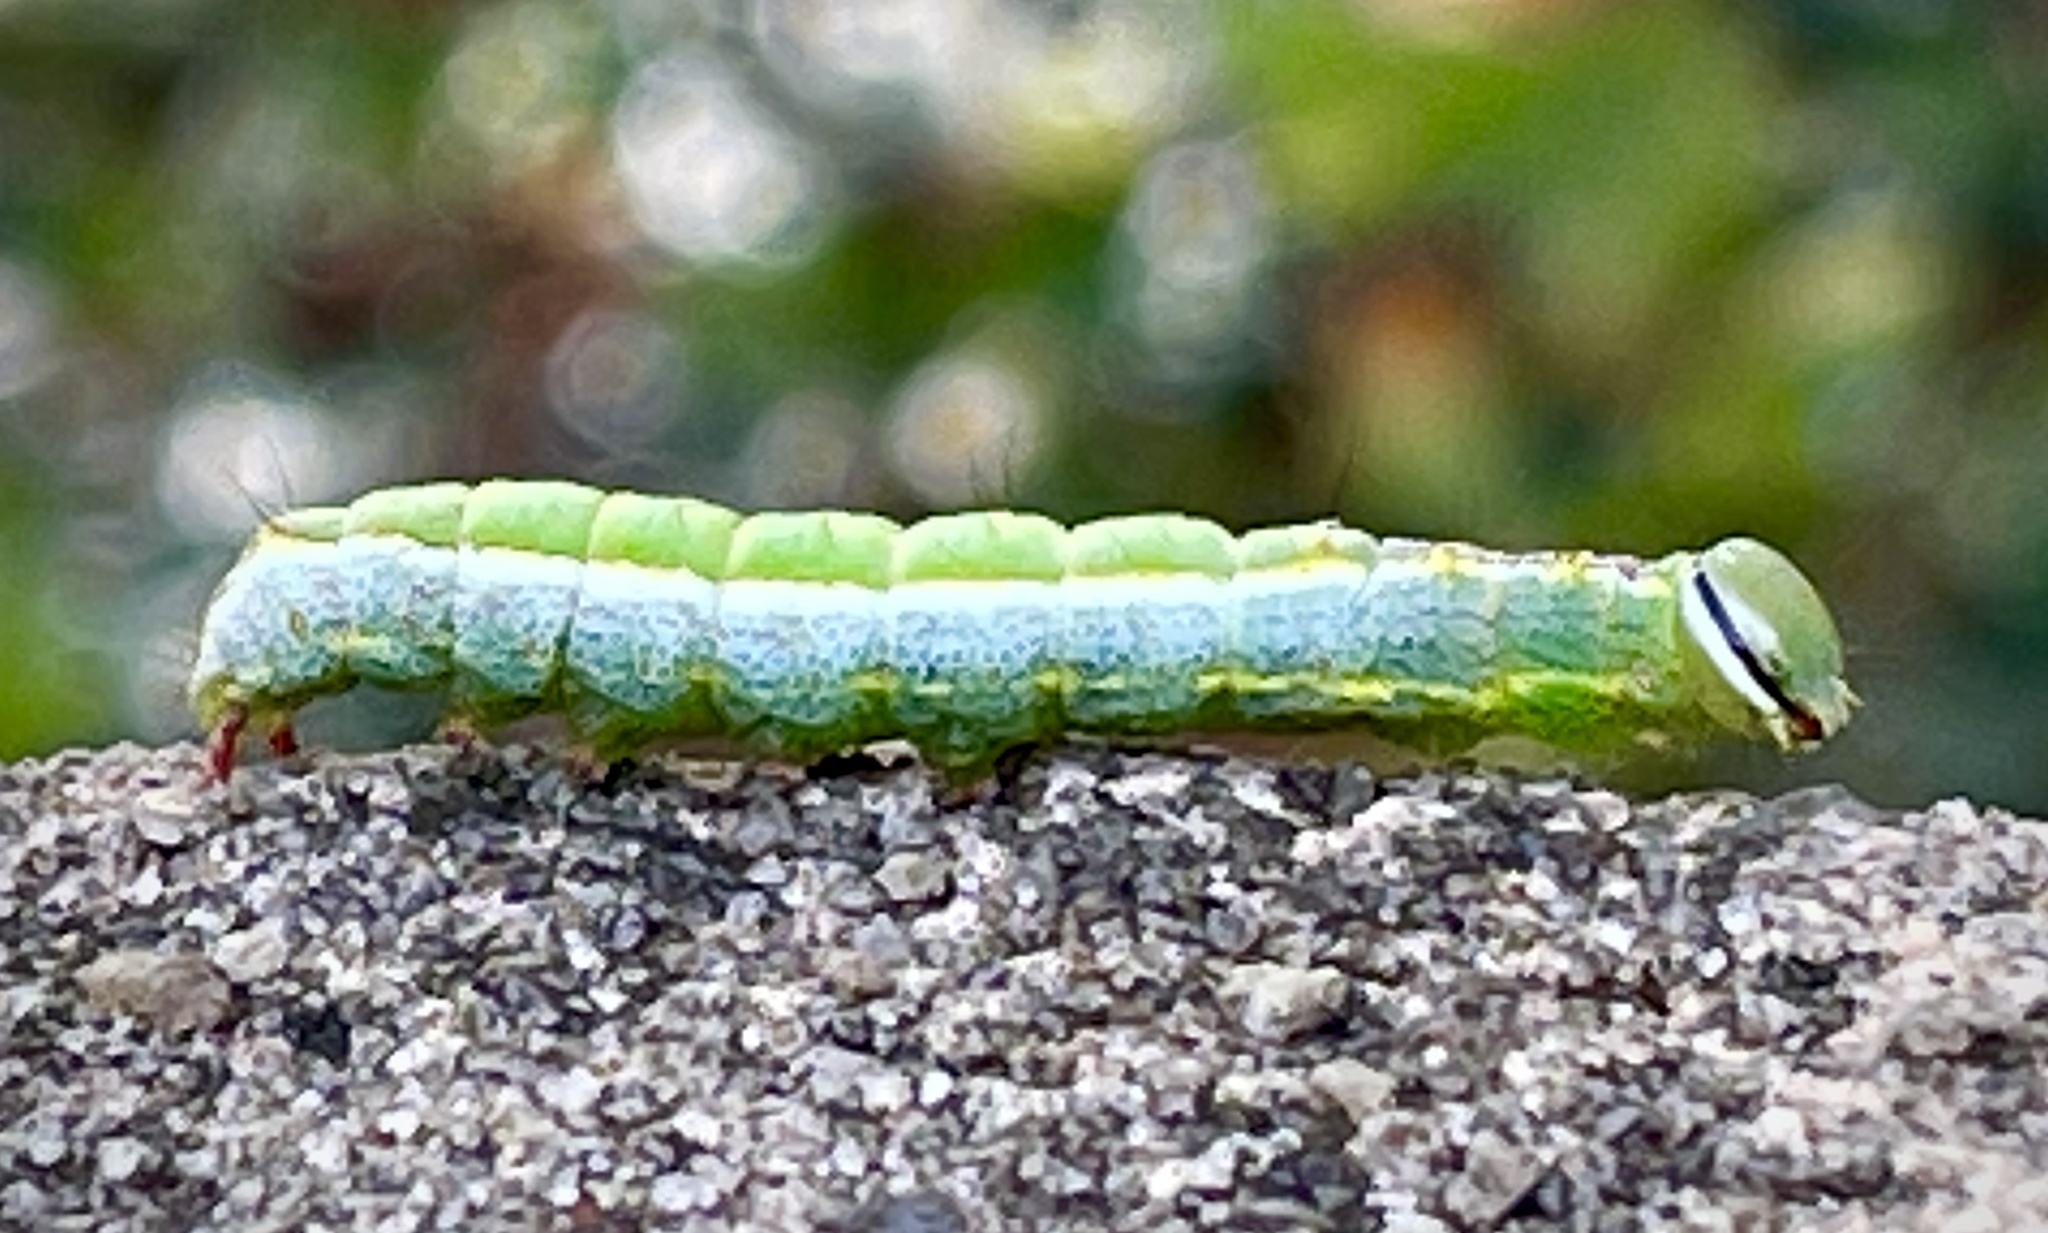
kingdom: Animalia
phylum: Arthropoda
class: Insecta
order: Lepidoptera
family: Notodontidae
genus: Lochmaeus
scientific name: Lochmaeus manteo
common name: Variable oakleaf caterpillar moth
